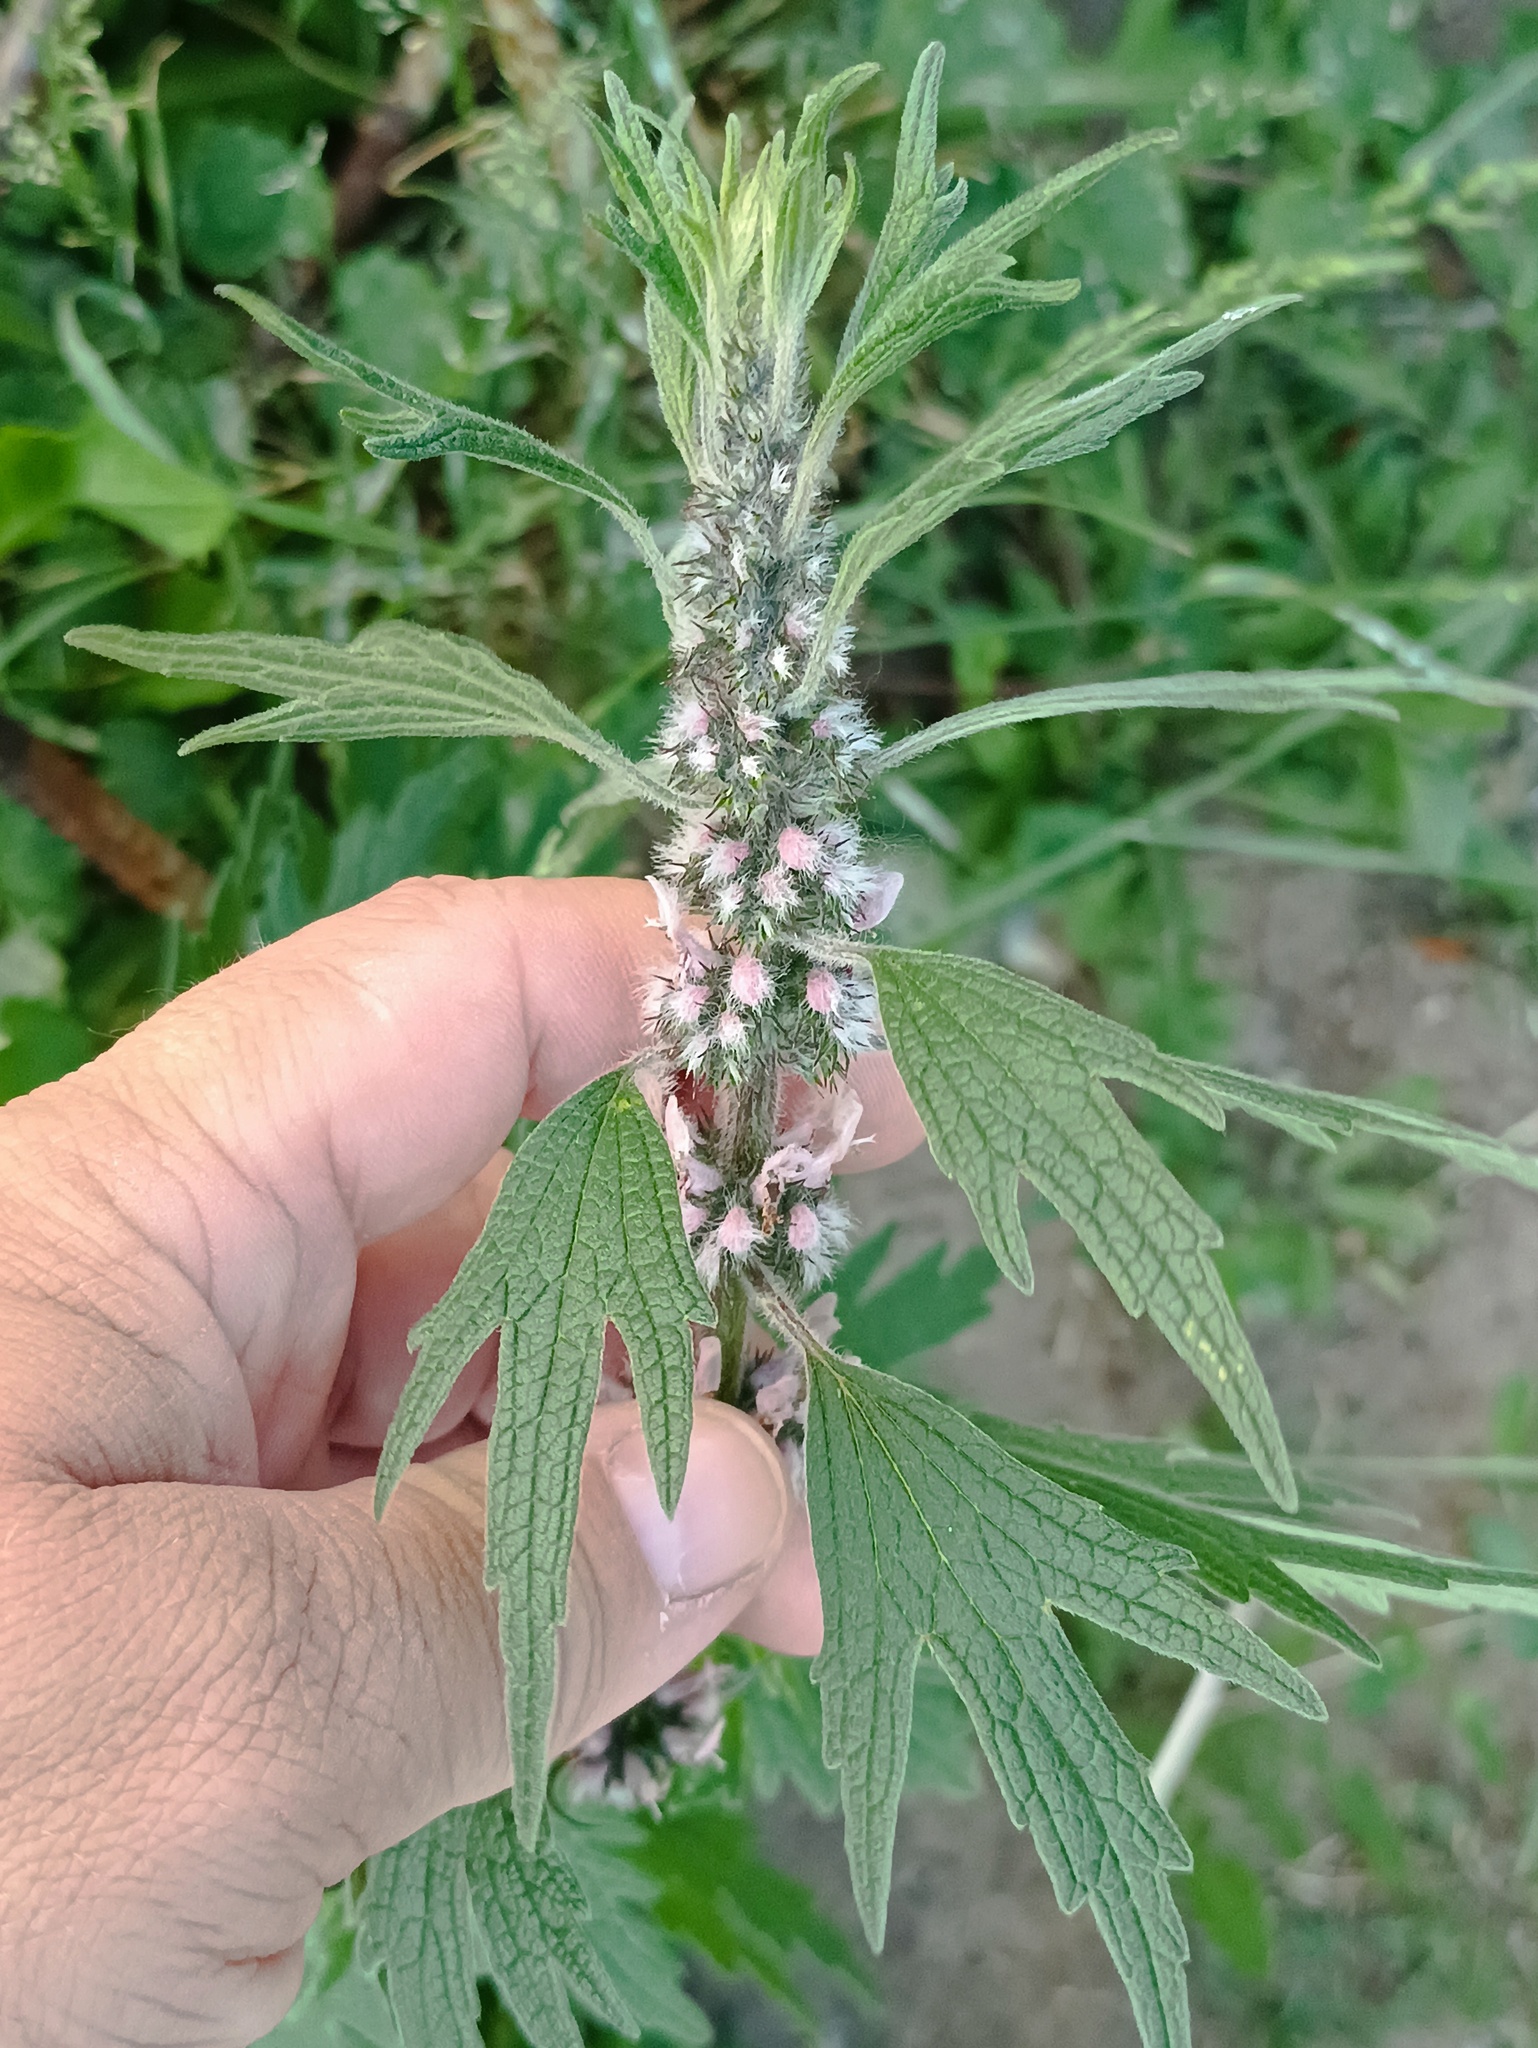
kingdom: Plantae
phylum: Tracheophyta
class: Magnoliopsida
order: Lamiales
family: Lamiaceae
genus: Leonurus
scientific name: Leonurus quinquelobatus
